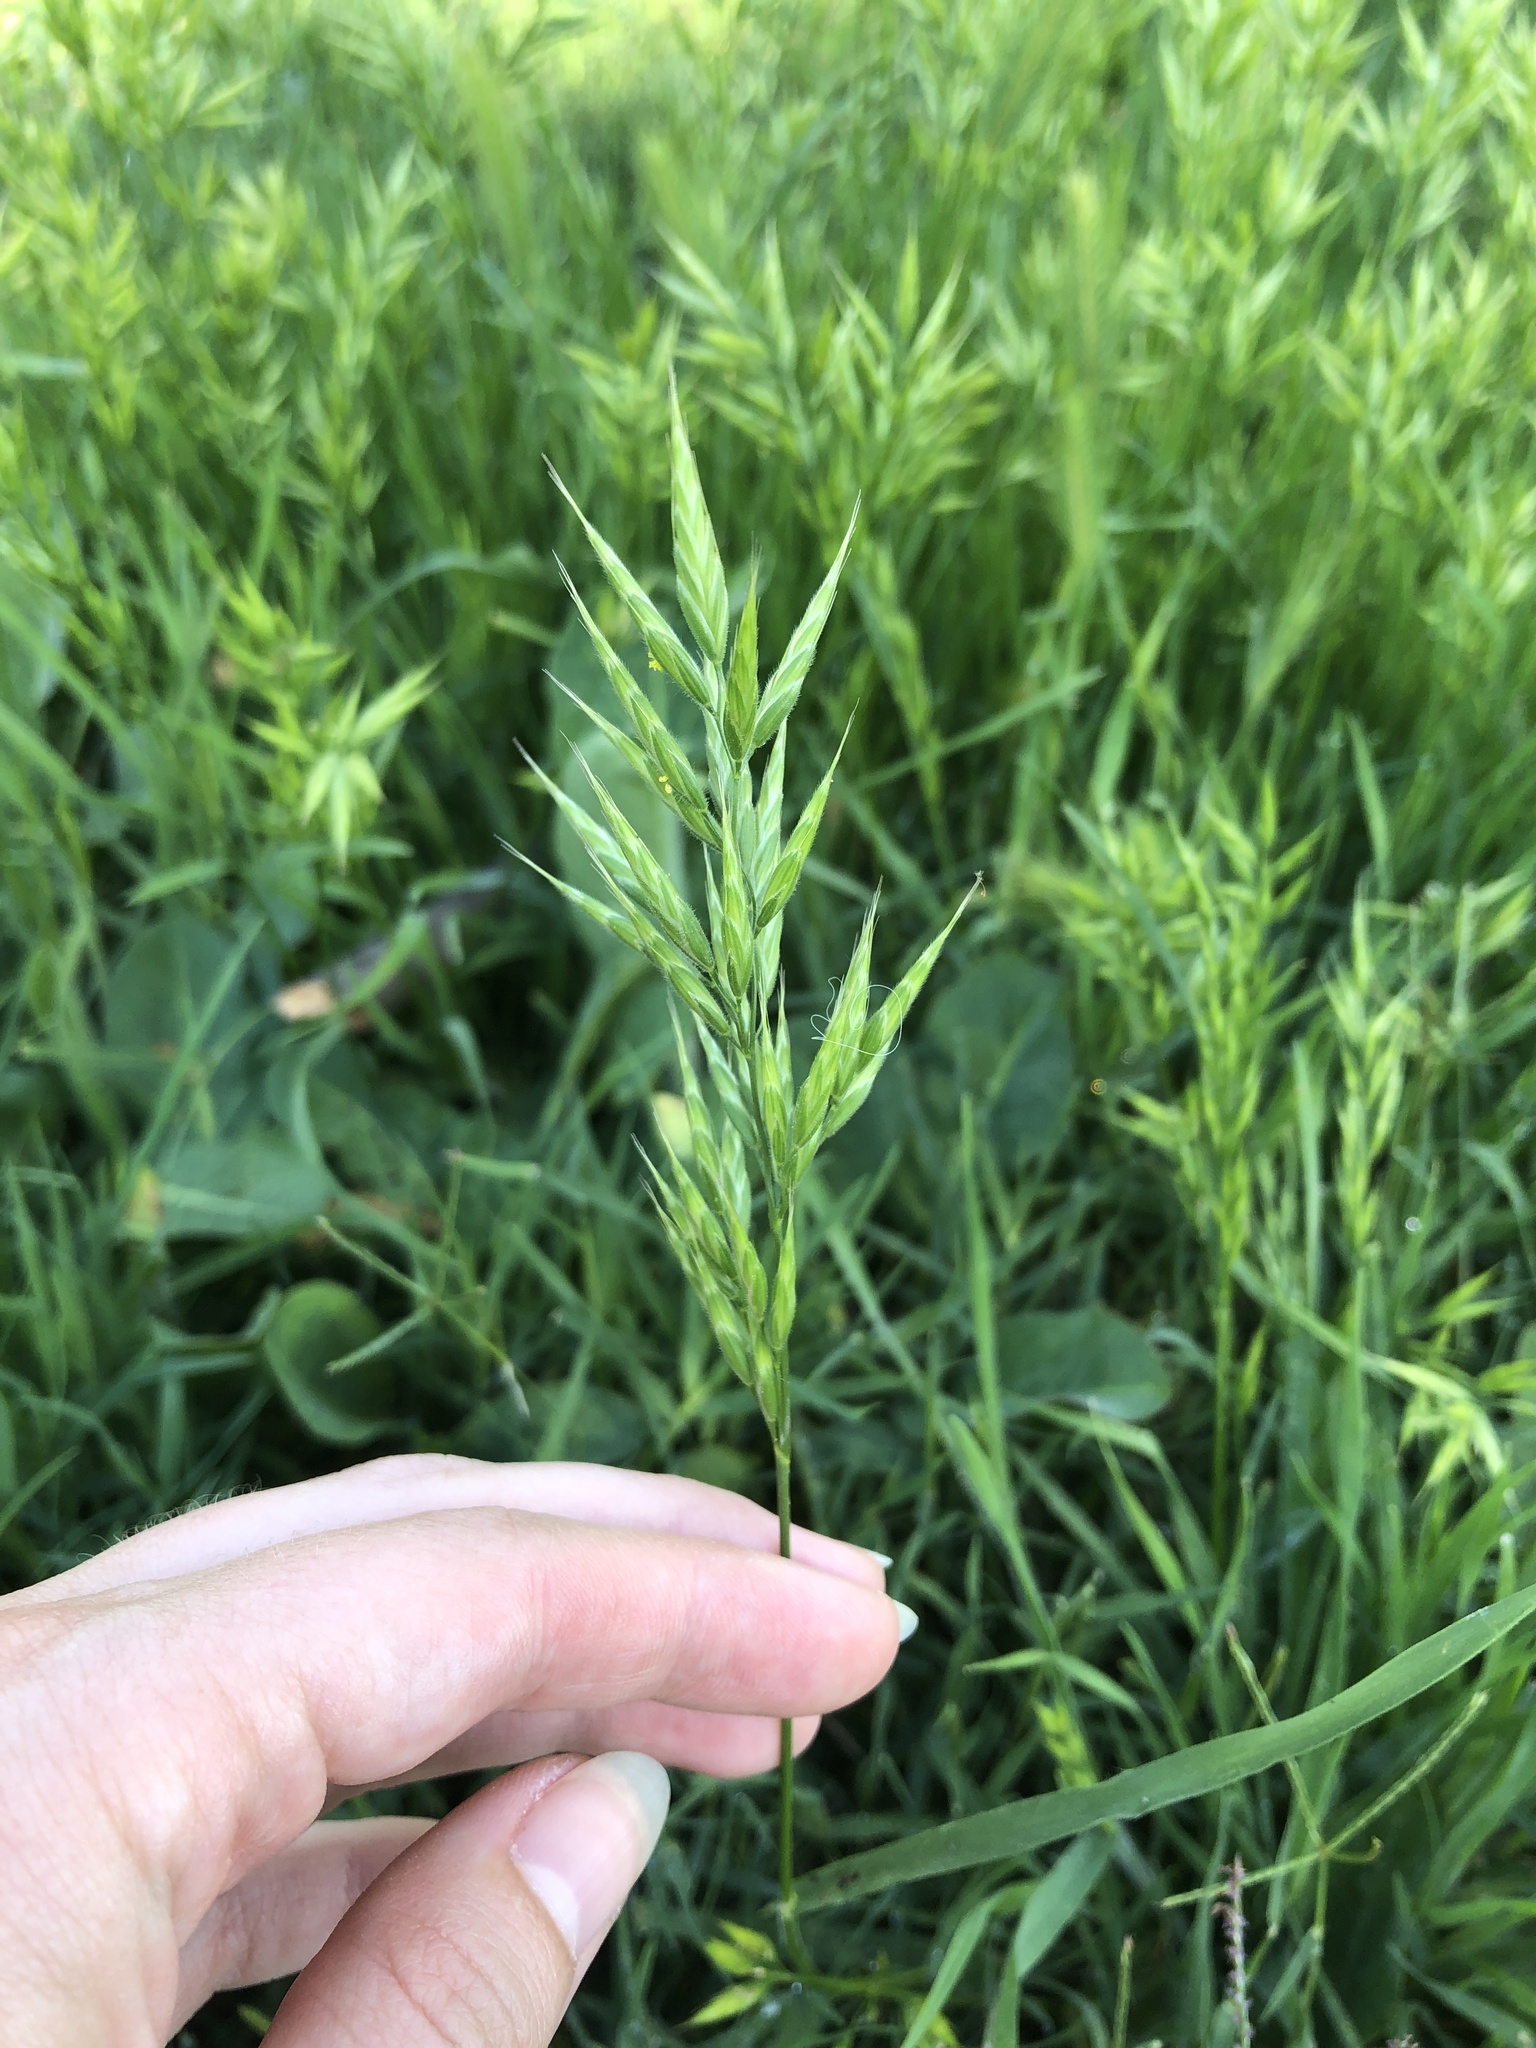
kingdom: Plantae
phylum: Tracheophyta
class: Liliopsida
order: Poales
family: Poaceae
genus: Bromus
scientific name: Bromus hordeaceus
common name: Soft brome
